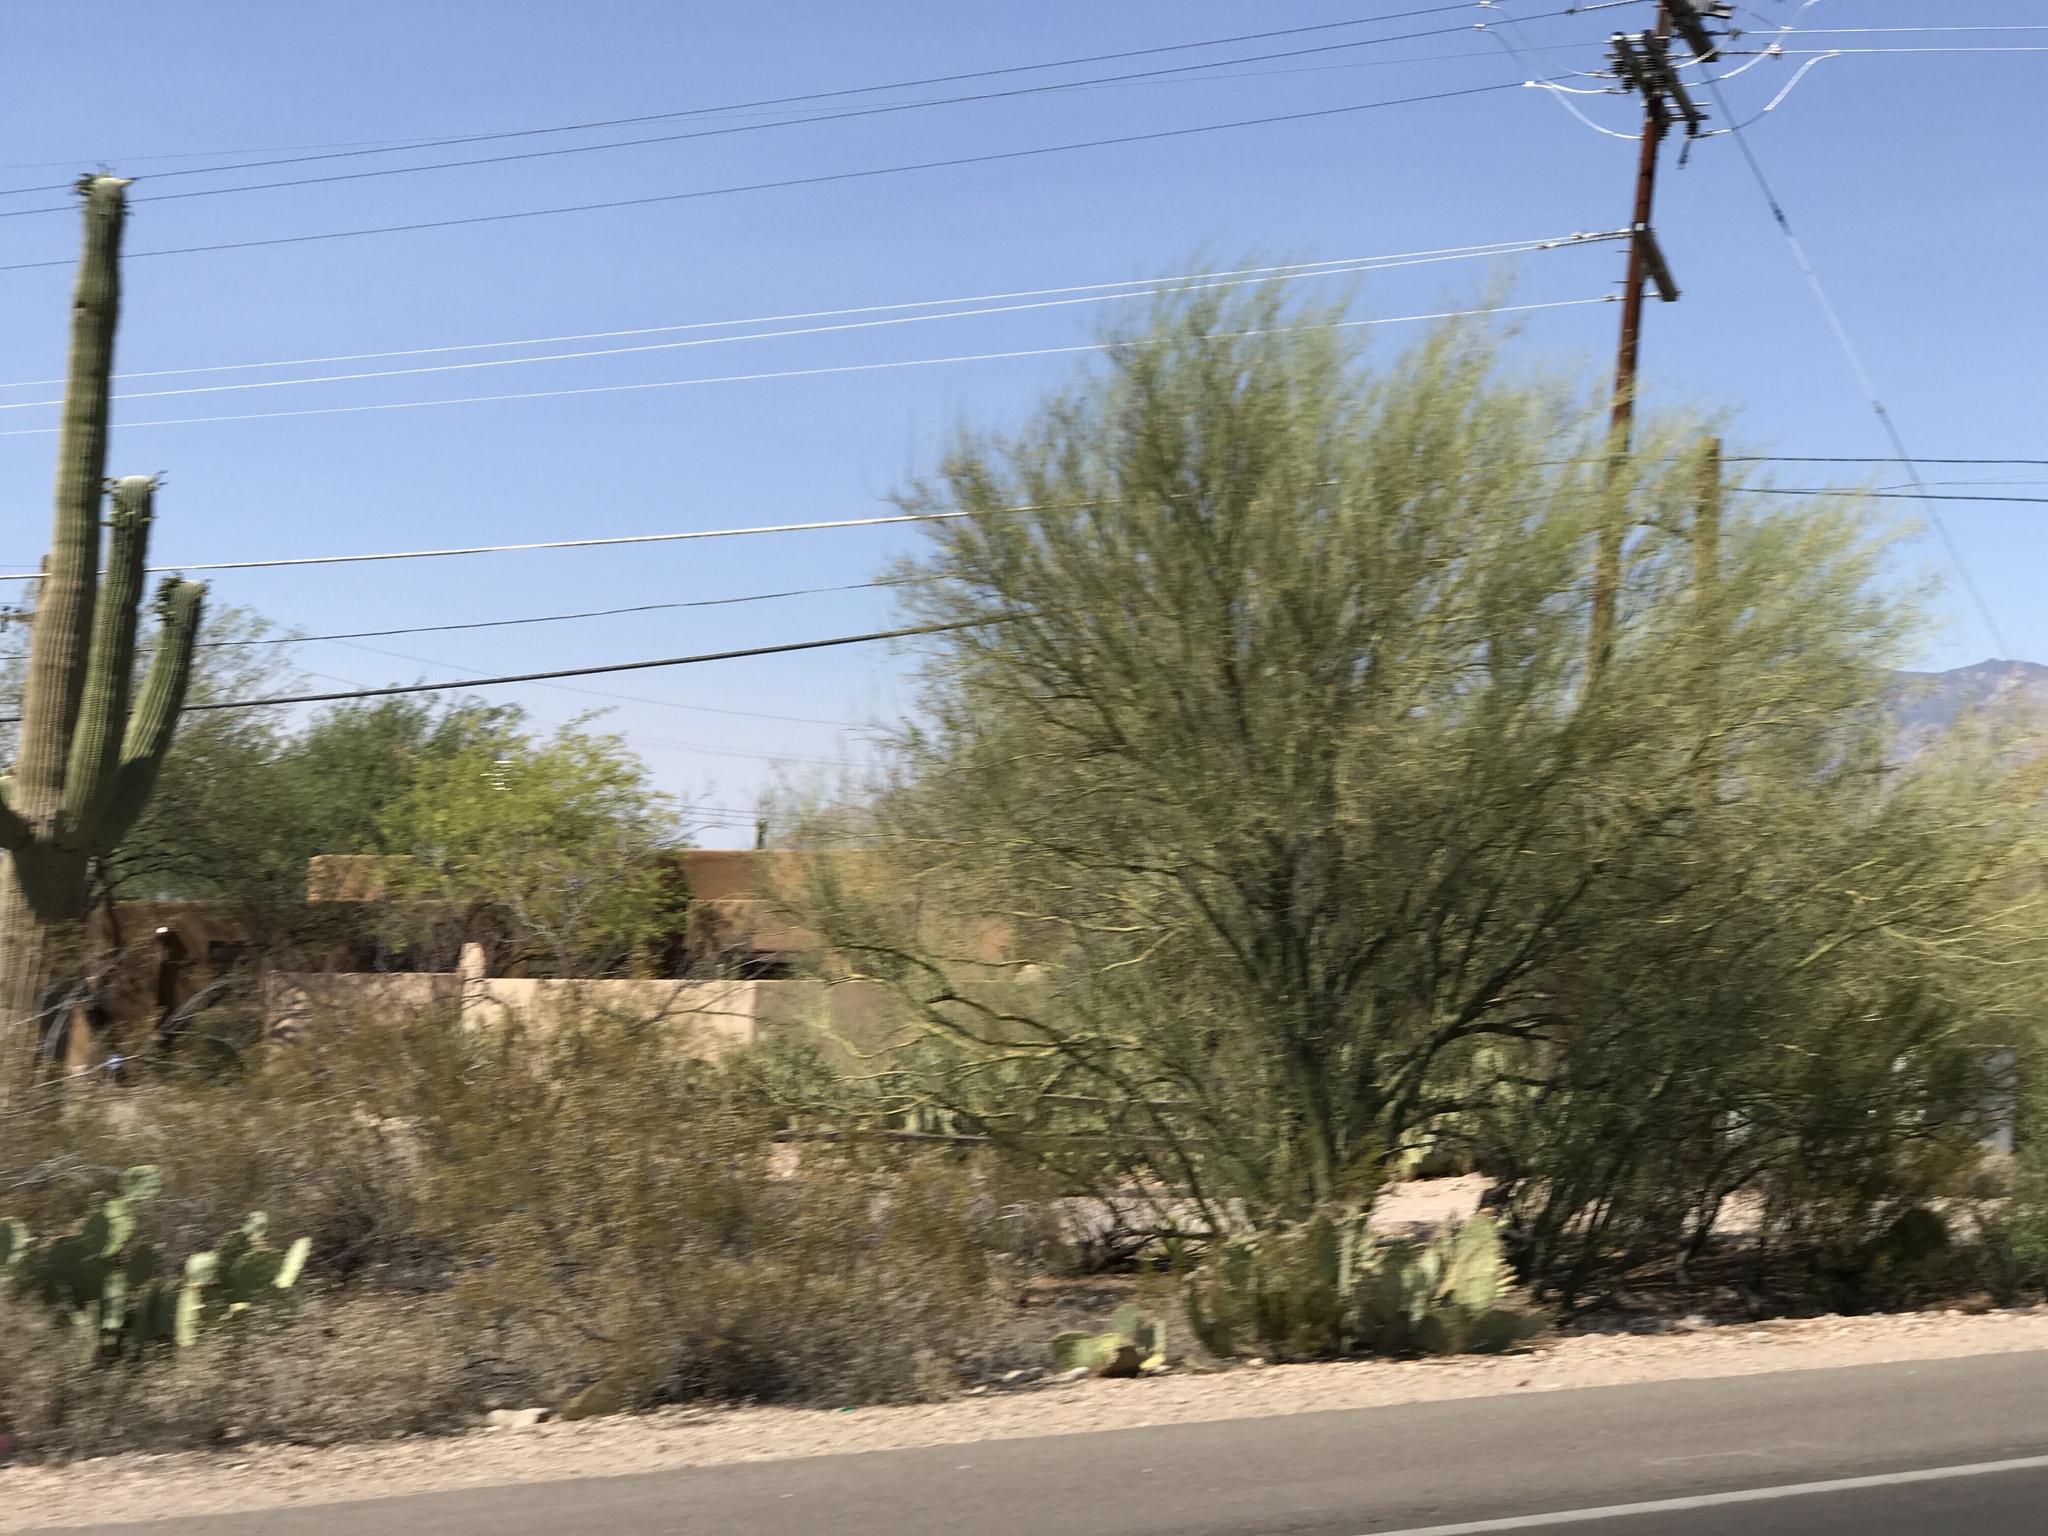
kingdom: Plantae
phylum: Tracheophyta
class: Magnoliopsida
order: Fabales
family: Fabaceae
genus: Parkinsonia
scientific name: Parkinsonia florida
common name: Blue paloverde
